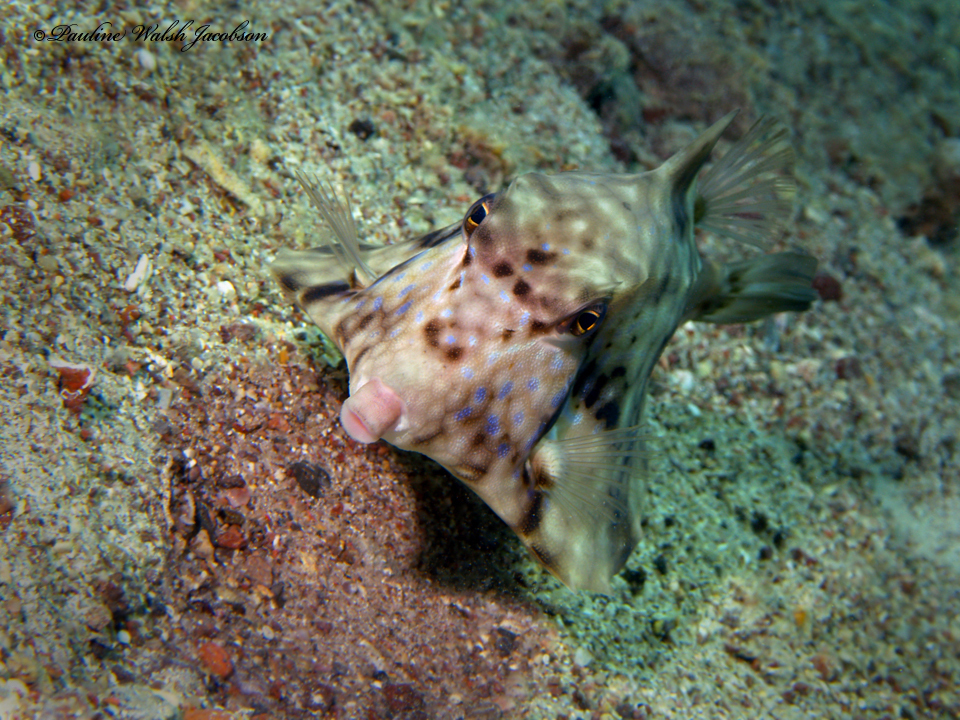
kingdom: Animalia
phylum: Chordata
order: Tetraodontiformes
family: Ostraciidae
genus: Tetrosomus
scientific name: Tetrosomus gibbosus
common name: Humpback turretfish
